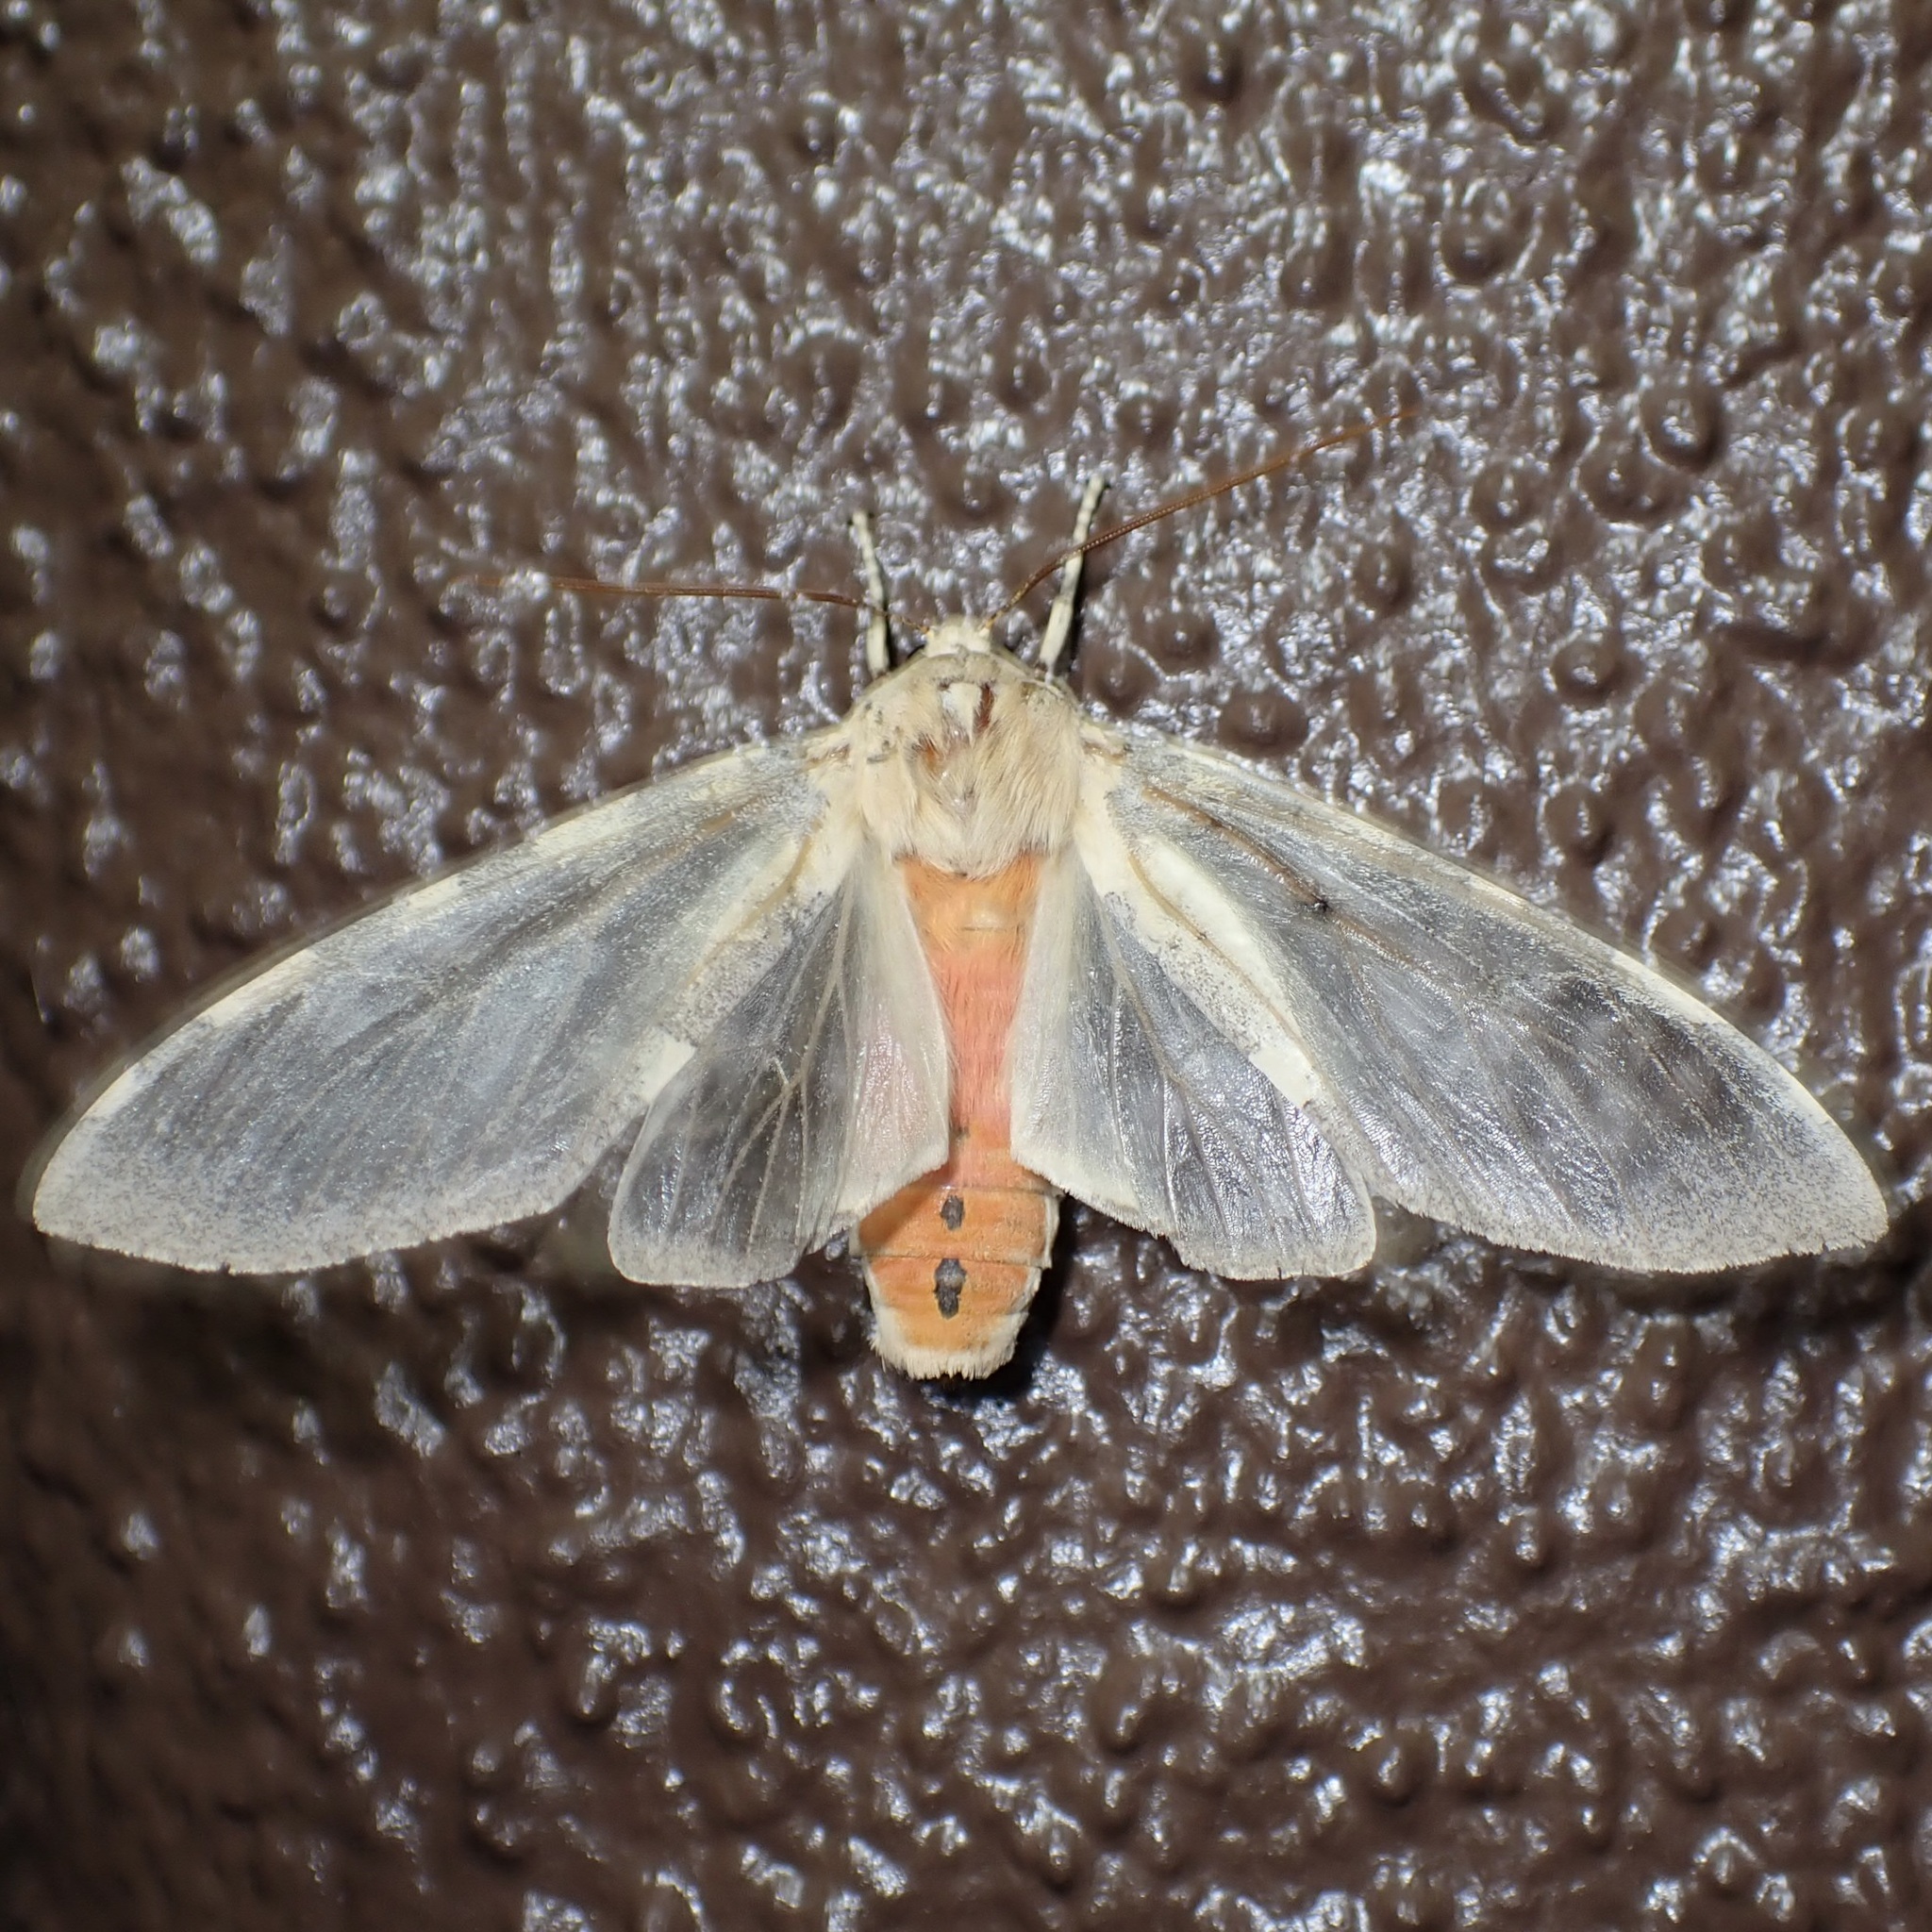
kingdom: Animalia
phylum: Arthropoda
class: Insecta
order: Lepidoptera
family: Erebidae
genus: Hemihyalea
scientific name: Hemihyalea edwardsii
